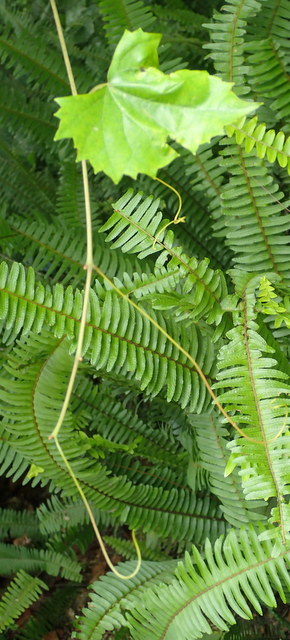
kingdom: Plantae
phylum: Tracheophyta
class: Magnoliopsida
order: Vitales
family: Vitaceae
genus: Vitis
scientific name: Vitis rotundifolia
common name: Muscadine grape
